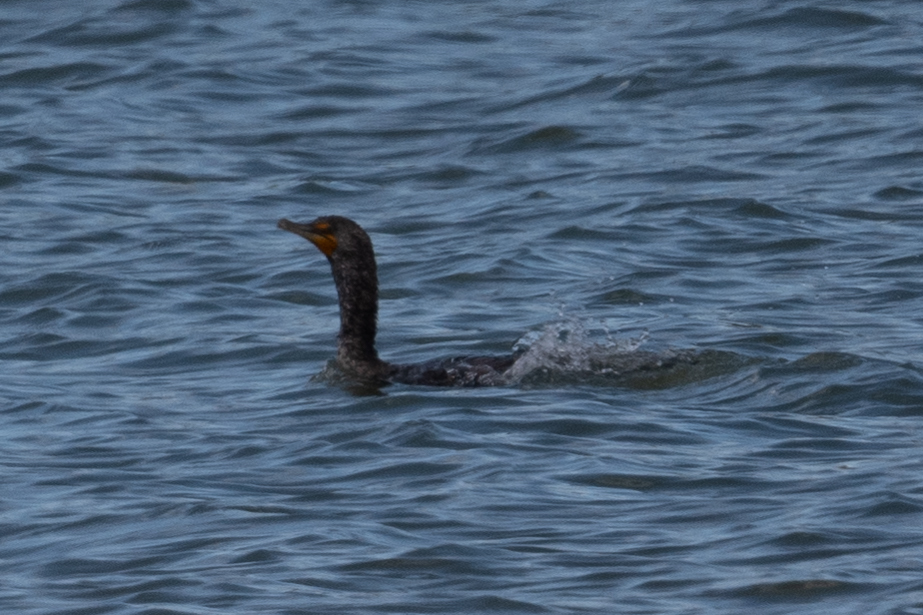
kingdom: Animalia
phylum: Chordata
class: Aves
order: Suliformes
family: Phalacrocoracidae
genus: Phalacrocorax
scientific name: Phalacrocorax auritus
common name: Double-crested cormorant
